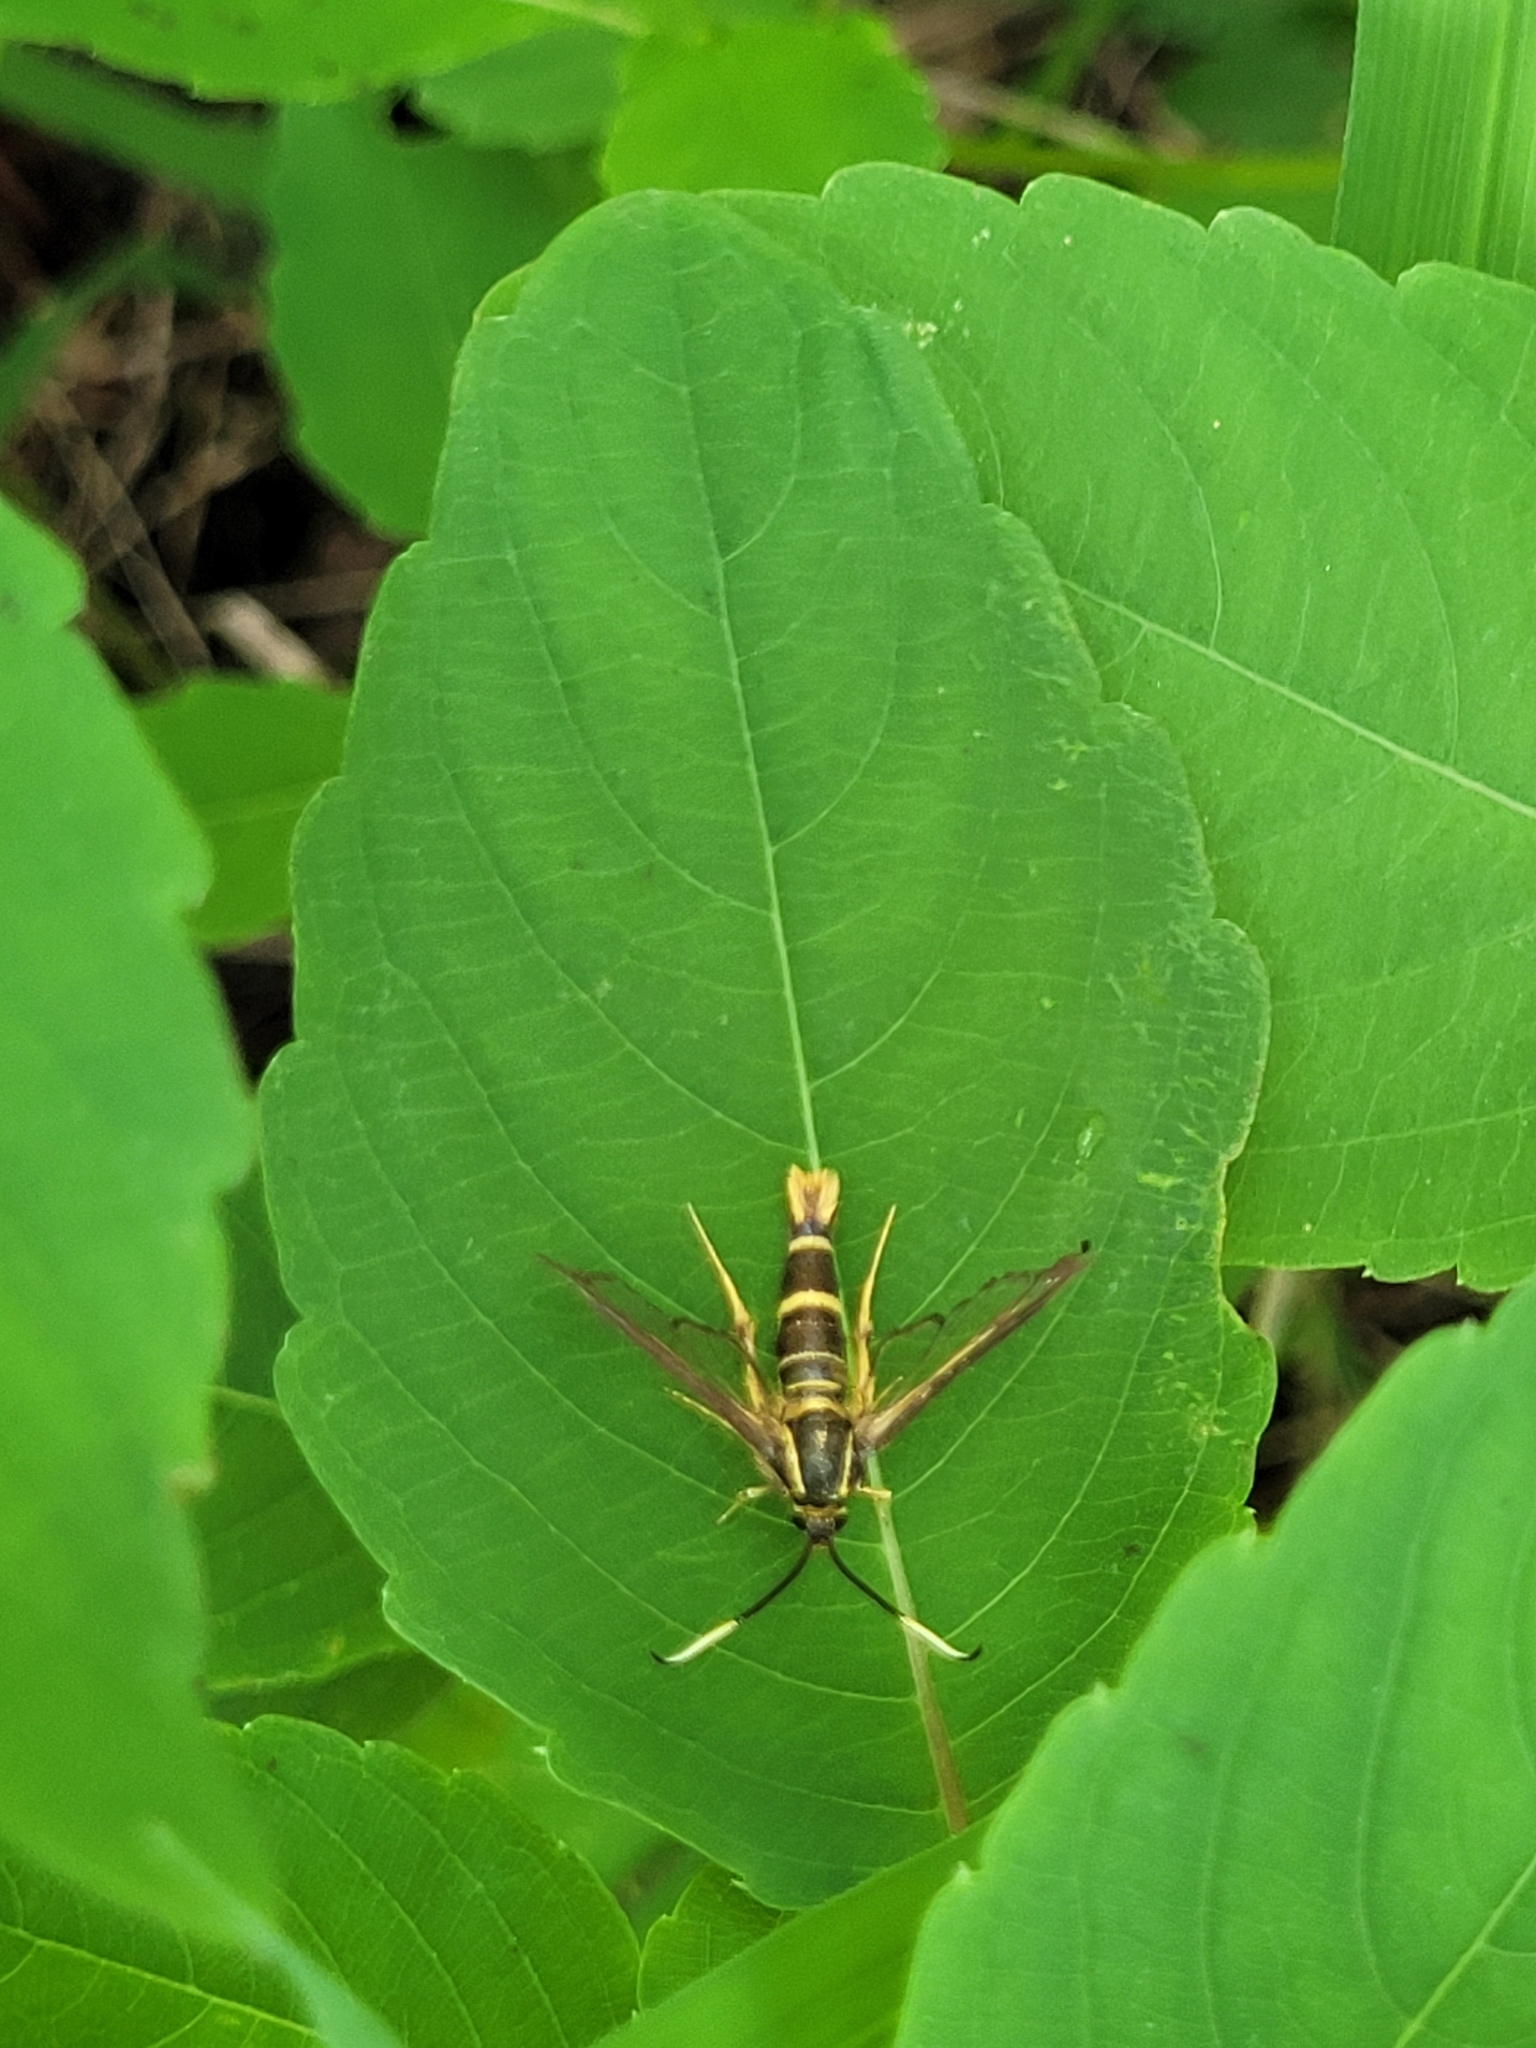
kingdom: Animalia
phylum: Arthropoda
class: Insecta
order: Lepidoptera
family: Sesiidae
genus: Carmenta
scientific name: Carmenta bassiformis
